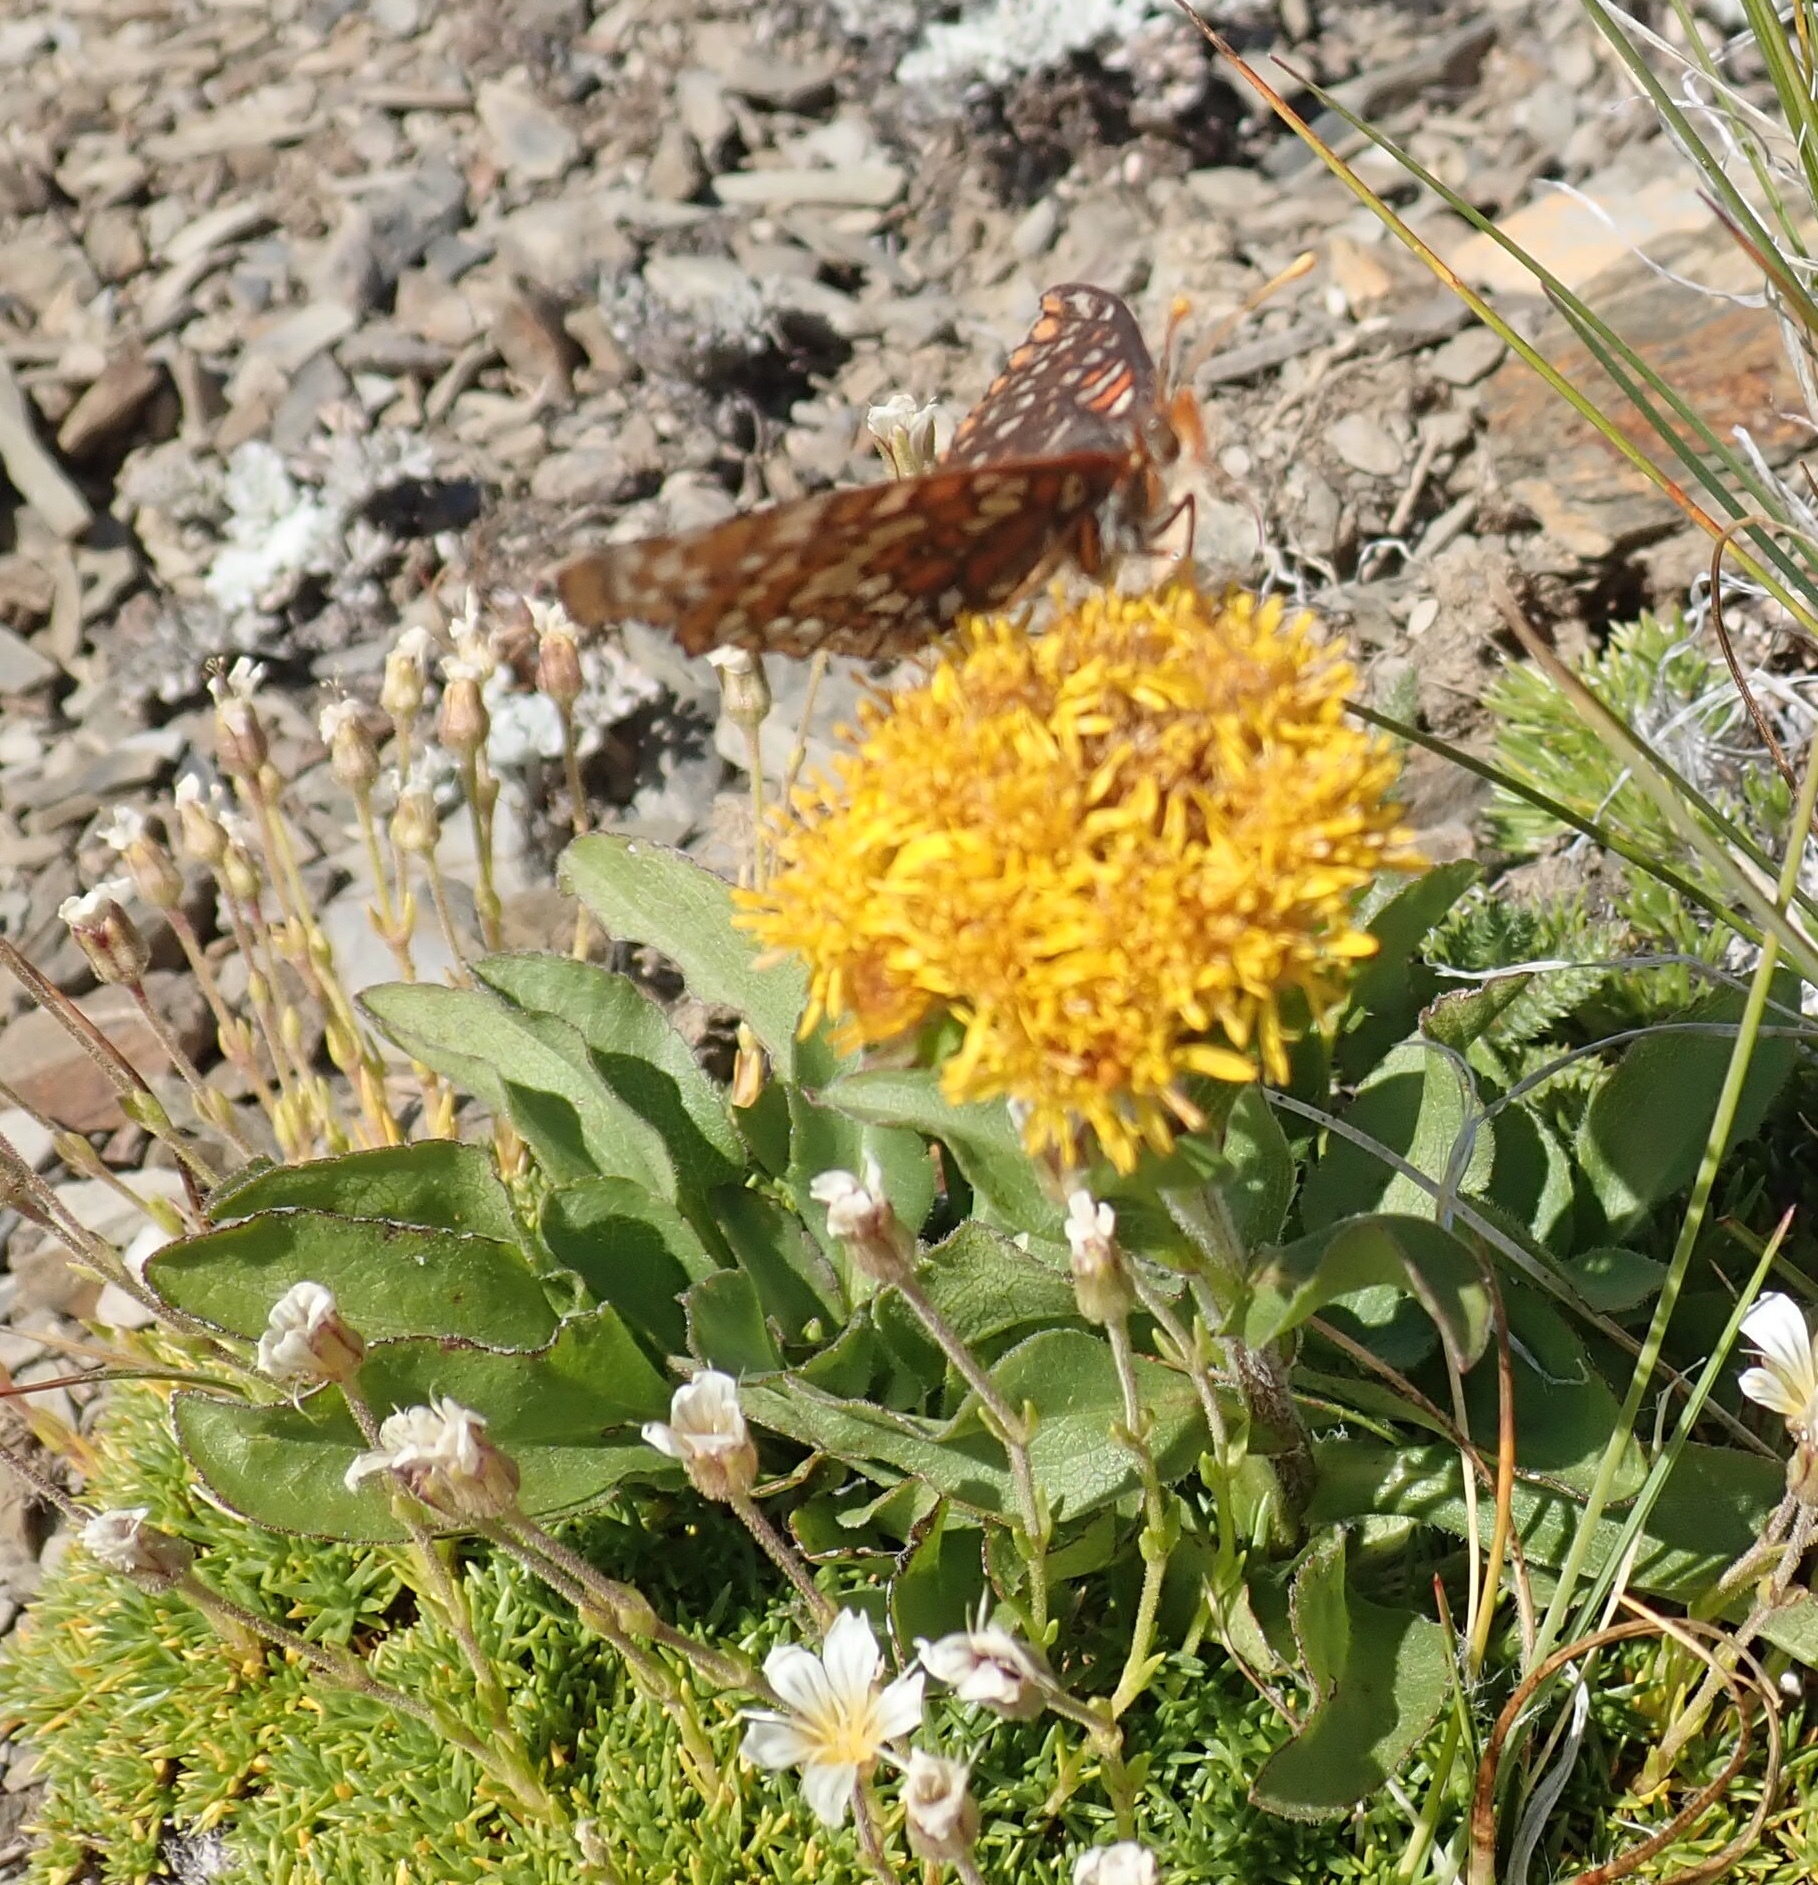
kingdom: Plantae
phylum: Tracheophyta
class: Magnoliopsida
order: Asterales
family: Asteraceae
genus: Solidago
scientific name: Solidago multiradiata
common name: Northern goldenrod
